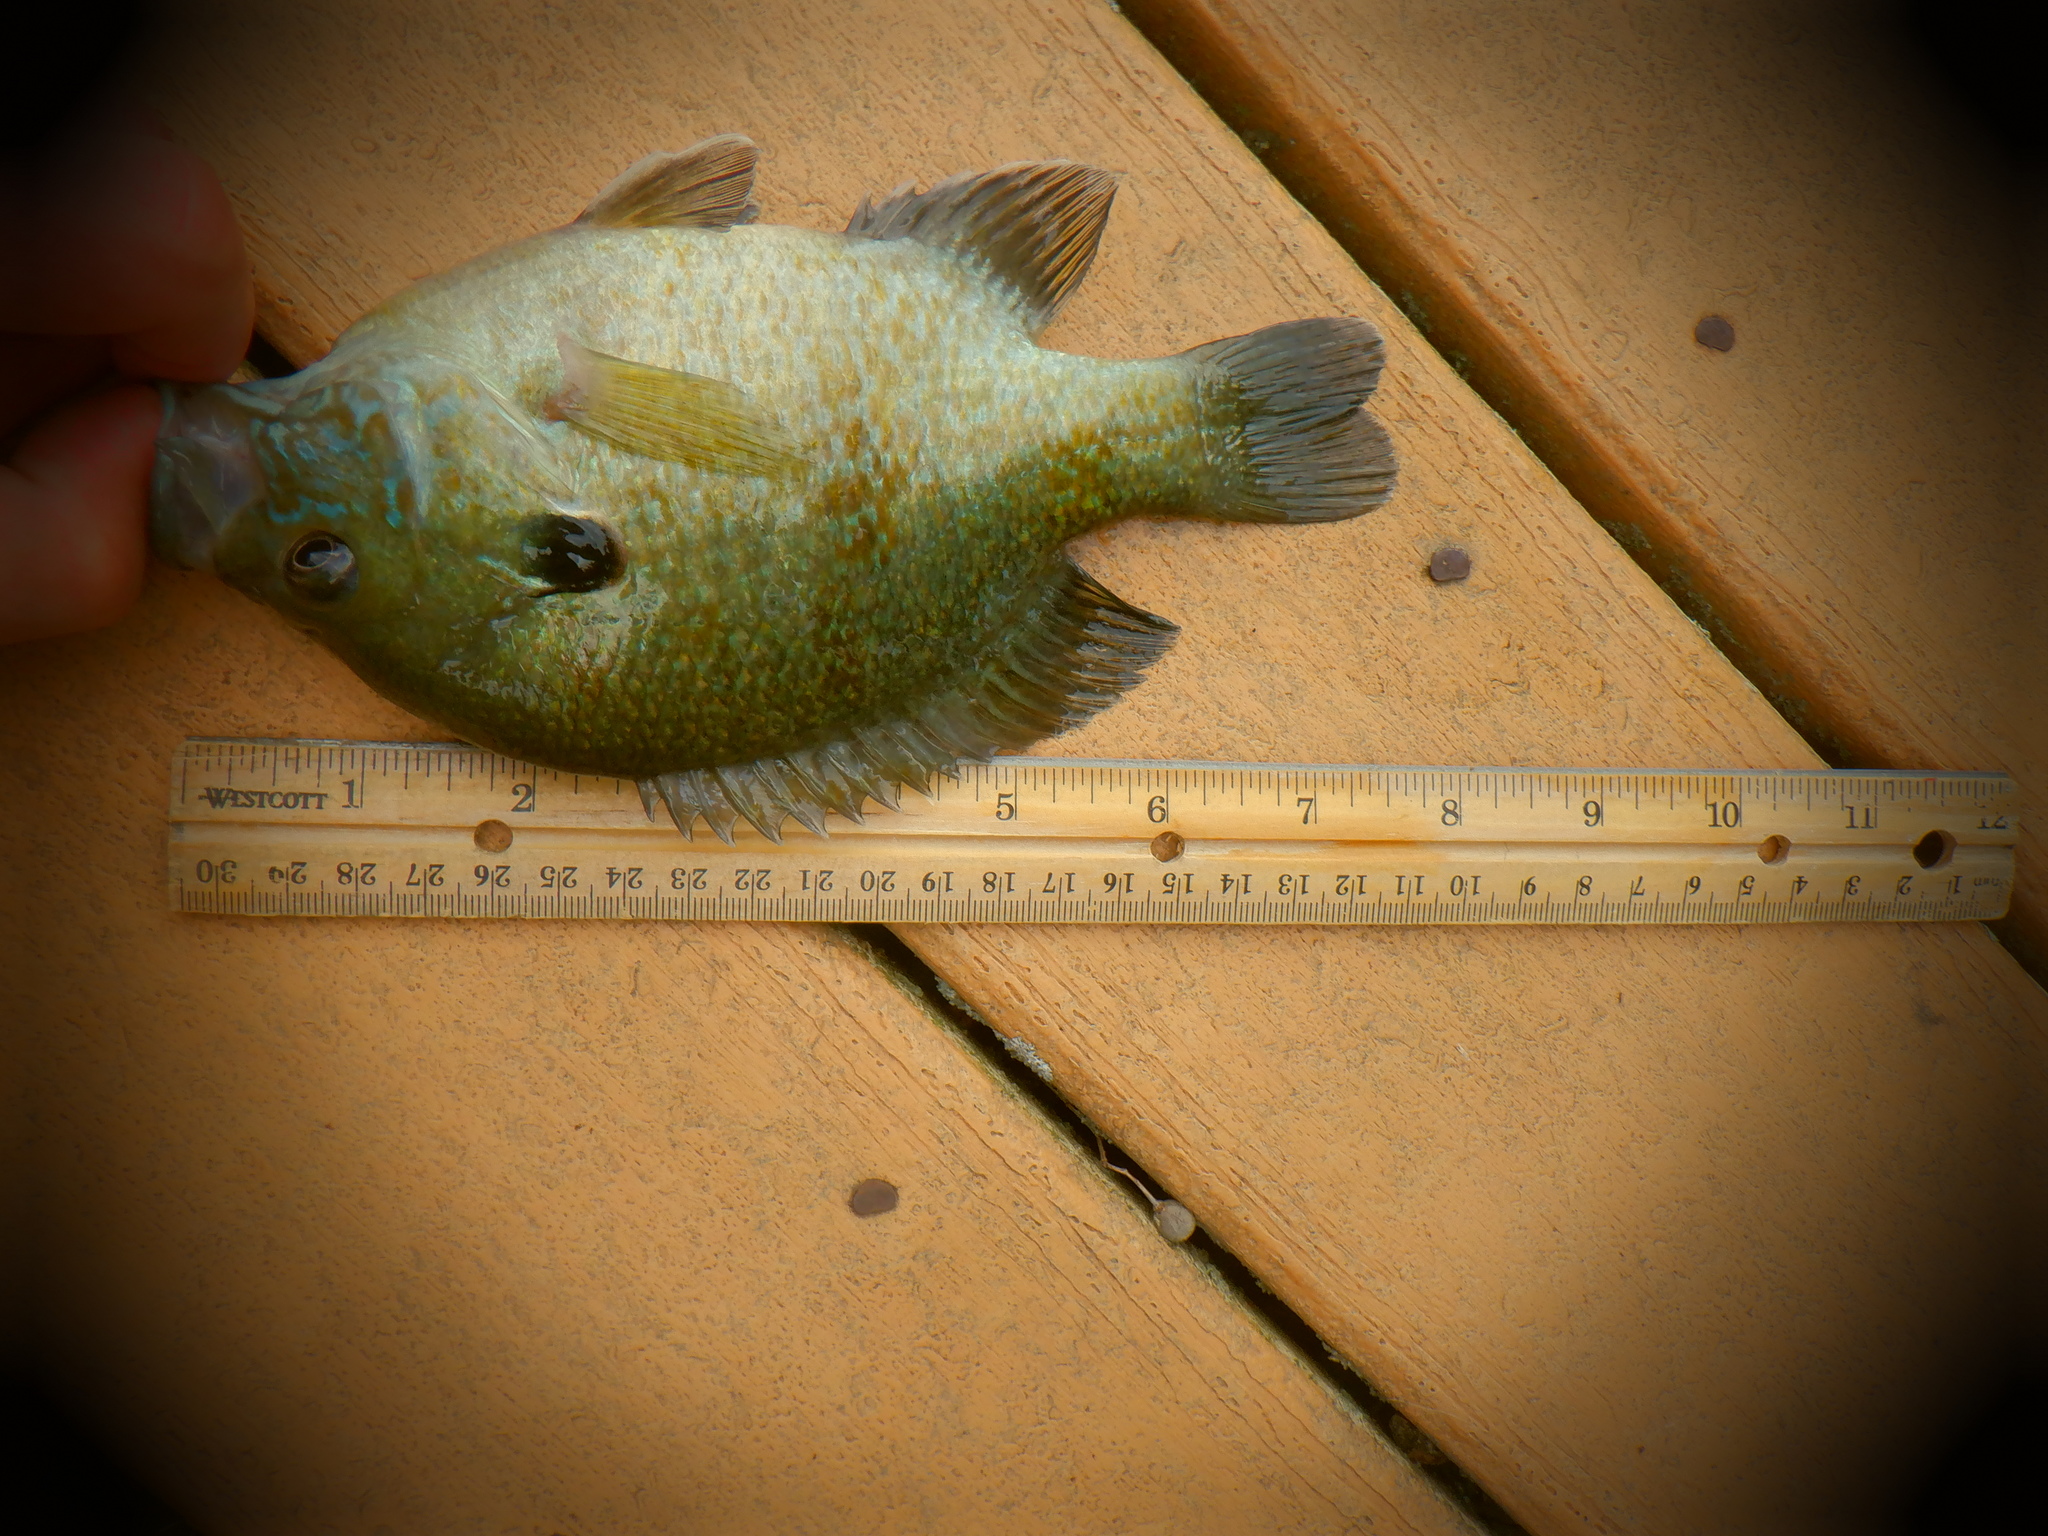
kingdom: Animalia
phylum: Chordata
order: Perciformes
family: Centrarchidae
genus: Lepomis
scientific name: Lepomis
